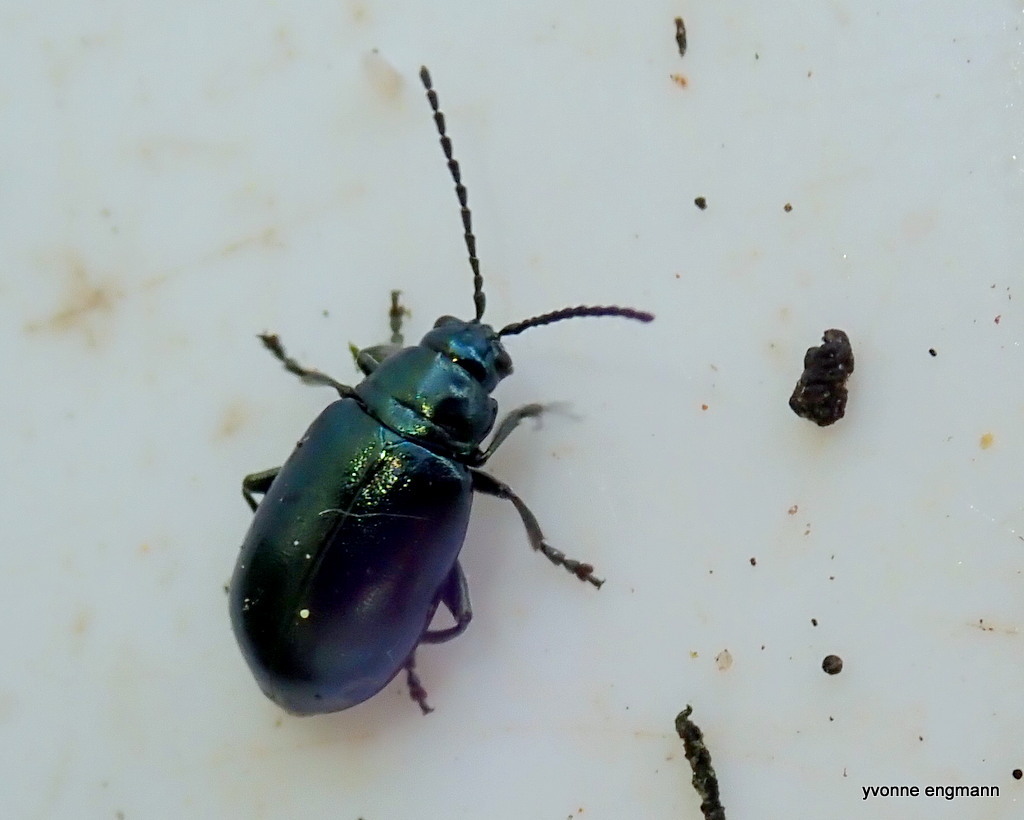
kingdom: Animalia
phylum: Arthropoda
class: Insecta
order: Coleoptera
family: Chrysomelidae
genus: Altica
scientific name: Altica
